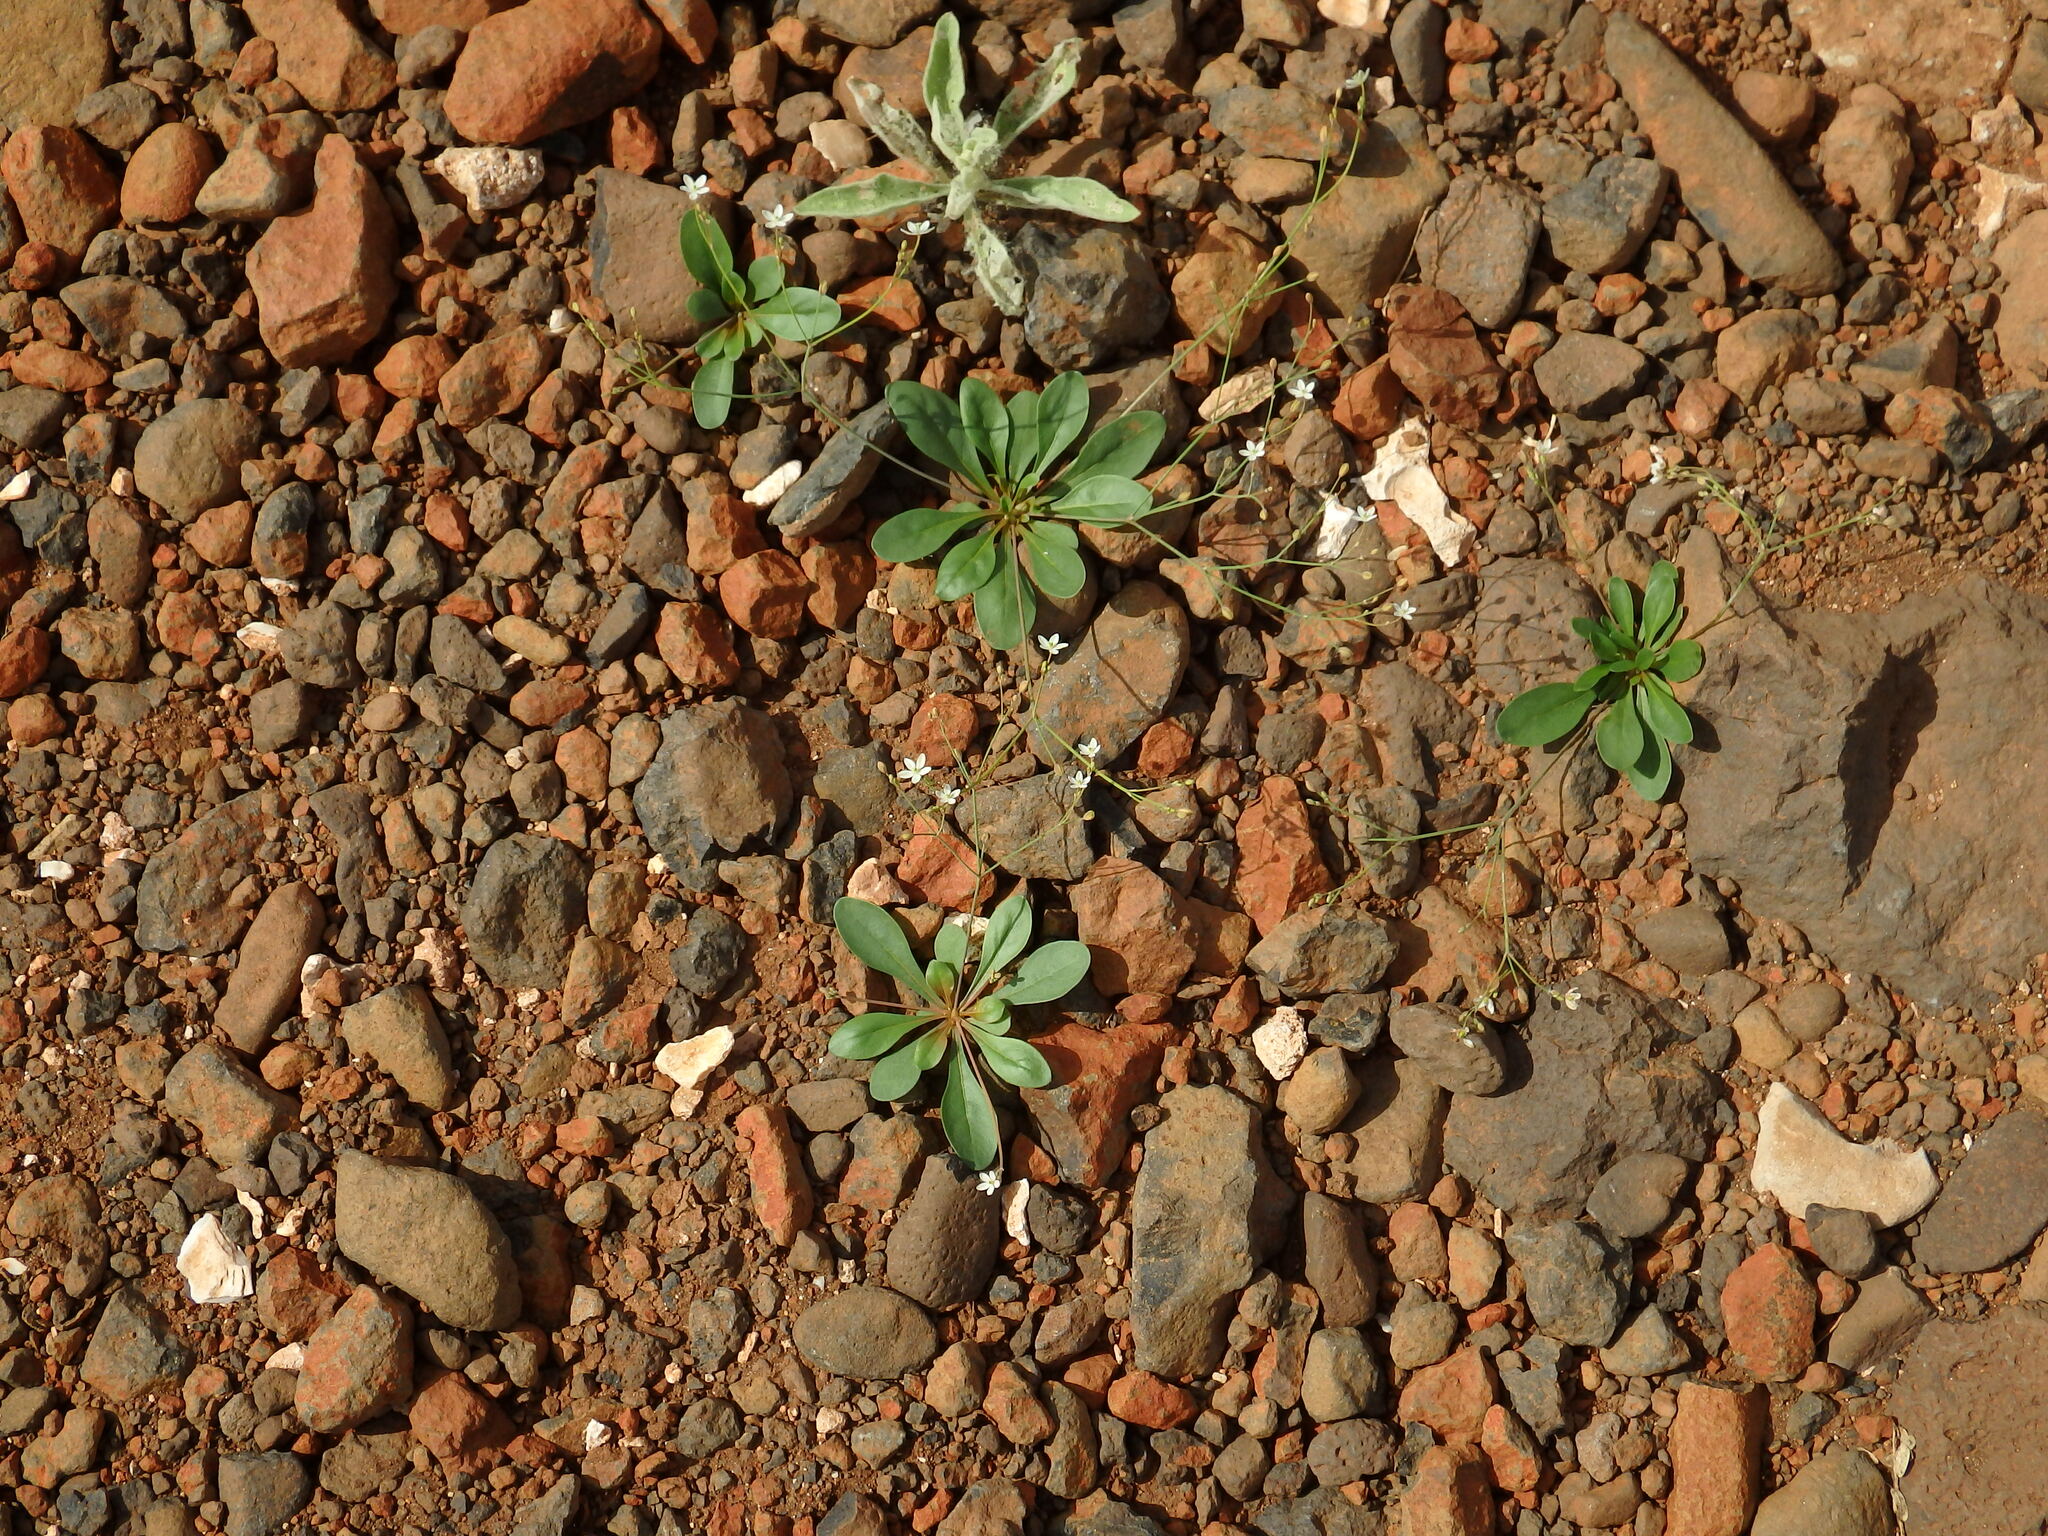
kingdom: Plantae
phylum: Tracheophyta
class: Magnoliopsida
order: Caryophyllales
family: Molluginaceae
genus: Paramollugo
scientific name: Paramollugo nudicaulis
